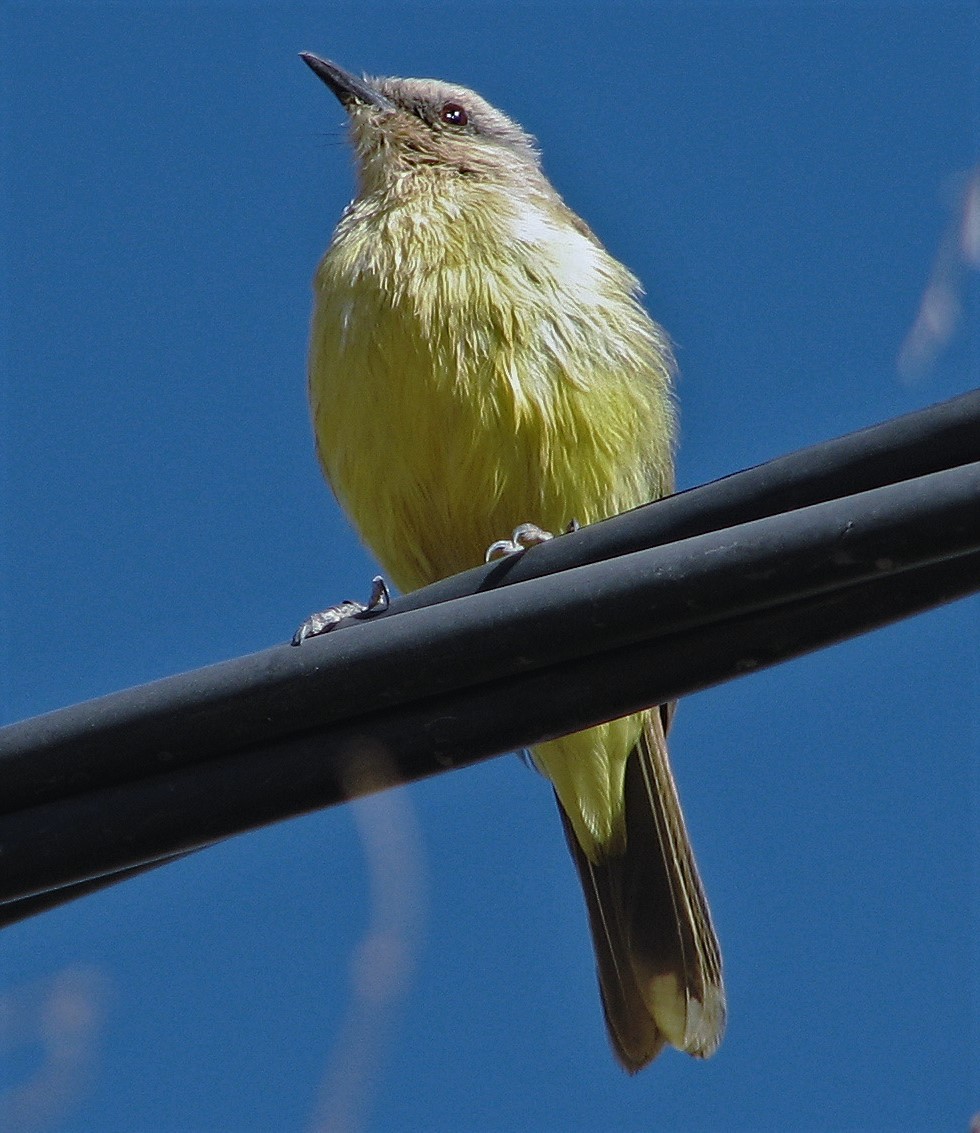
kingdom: Animalia
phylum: Chordata
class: Aves
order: Passeriformes
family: Tyrannidae
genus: Machetornis
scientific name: Machetornis rixosa
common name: Cattle tyrant
